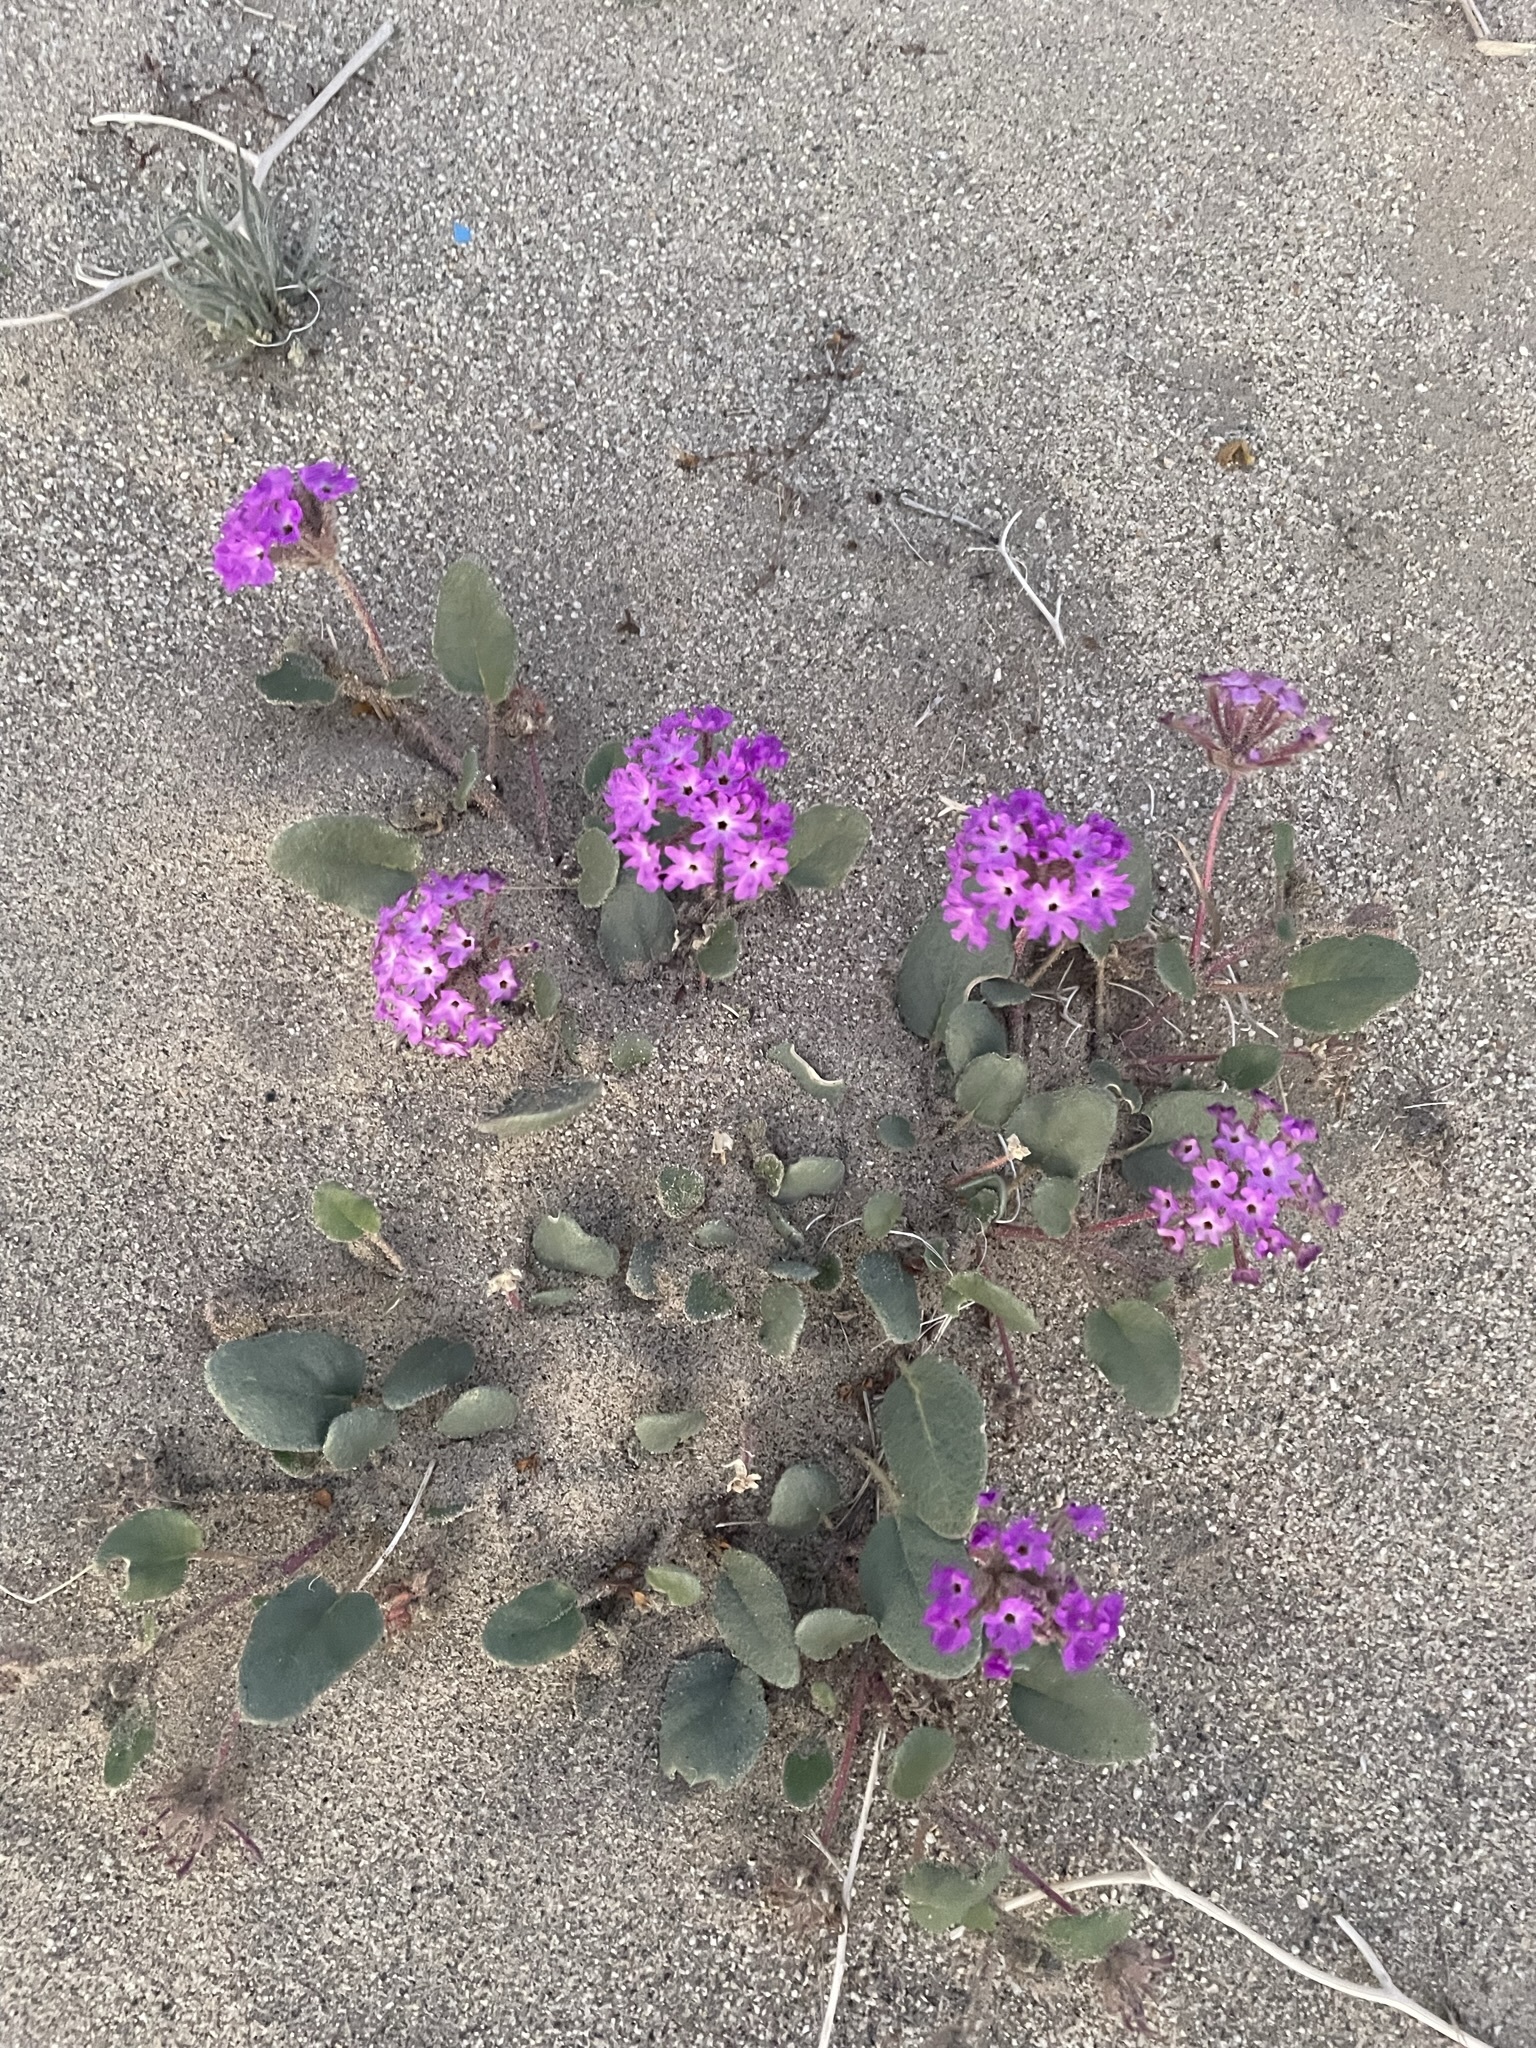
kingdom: Plantae
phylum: Tracheophyta
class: Magnoliopsida
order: Caryophyllales
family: Nyctaginaceae
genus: Abronia
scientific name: Abronia villosa
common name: Desert sand-verbena
